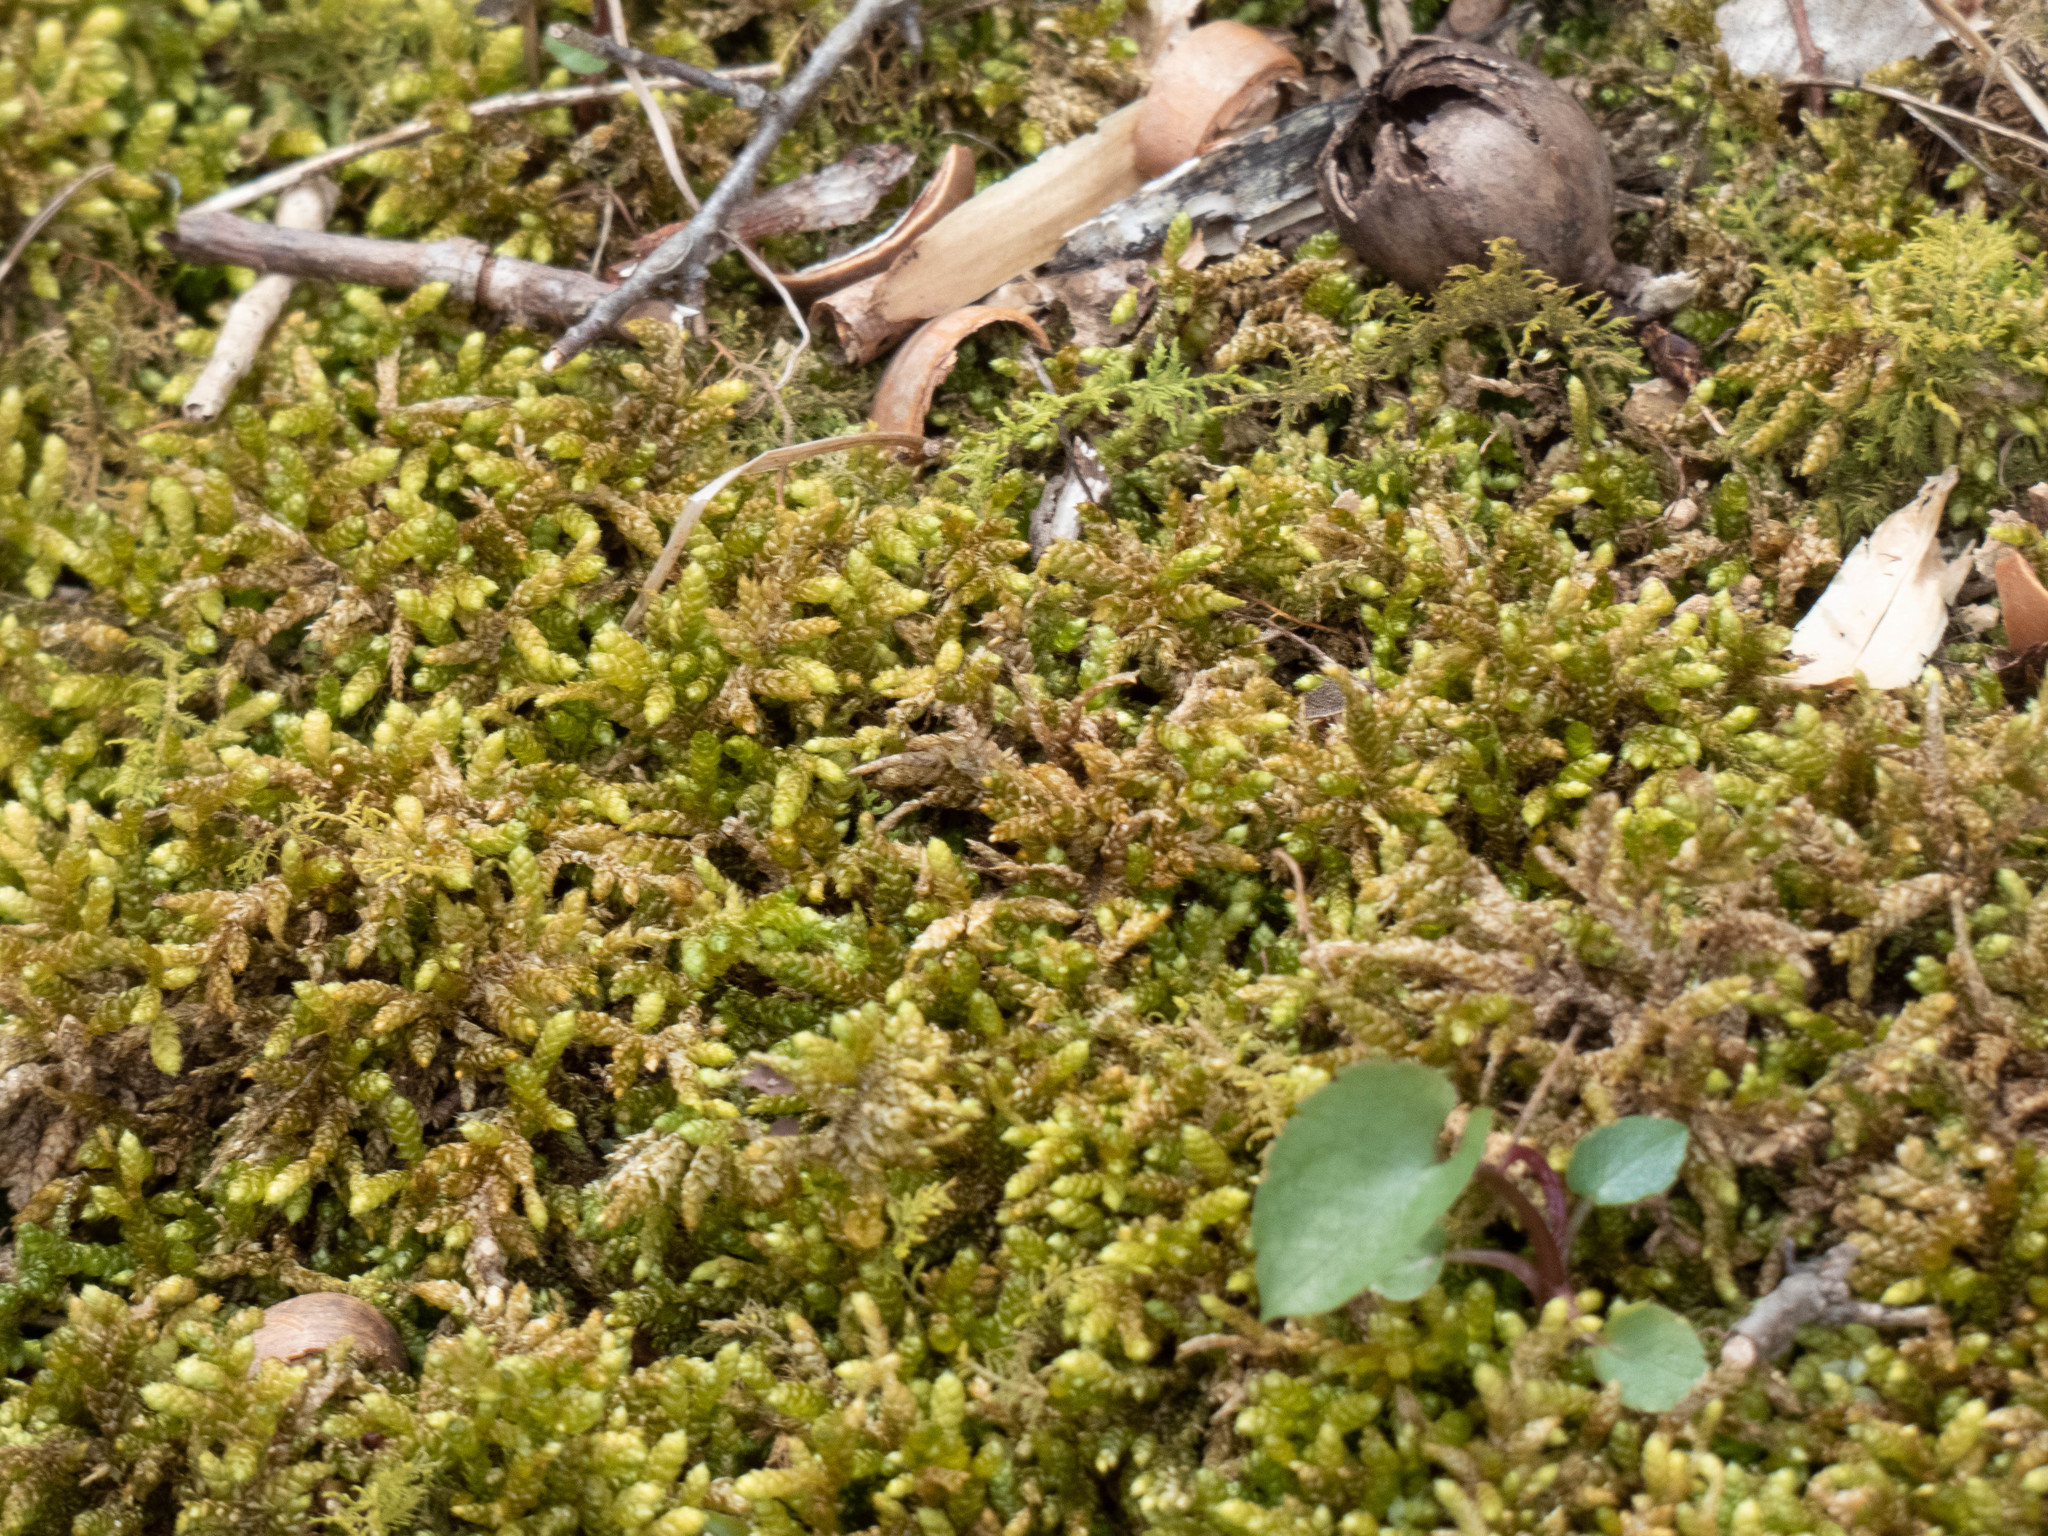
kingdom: Plantae
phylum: Bryophyta
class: Bryopsida
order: Hypnales
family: Brachytheciaceae
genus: Bryoandersonia
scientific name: Bryoandersonia illecebra
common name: Spoon-leaved moss
